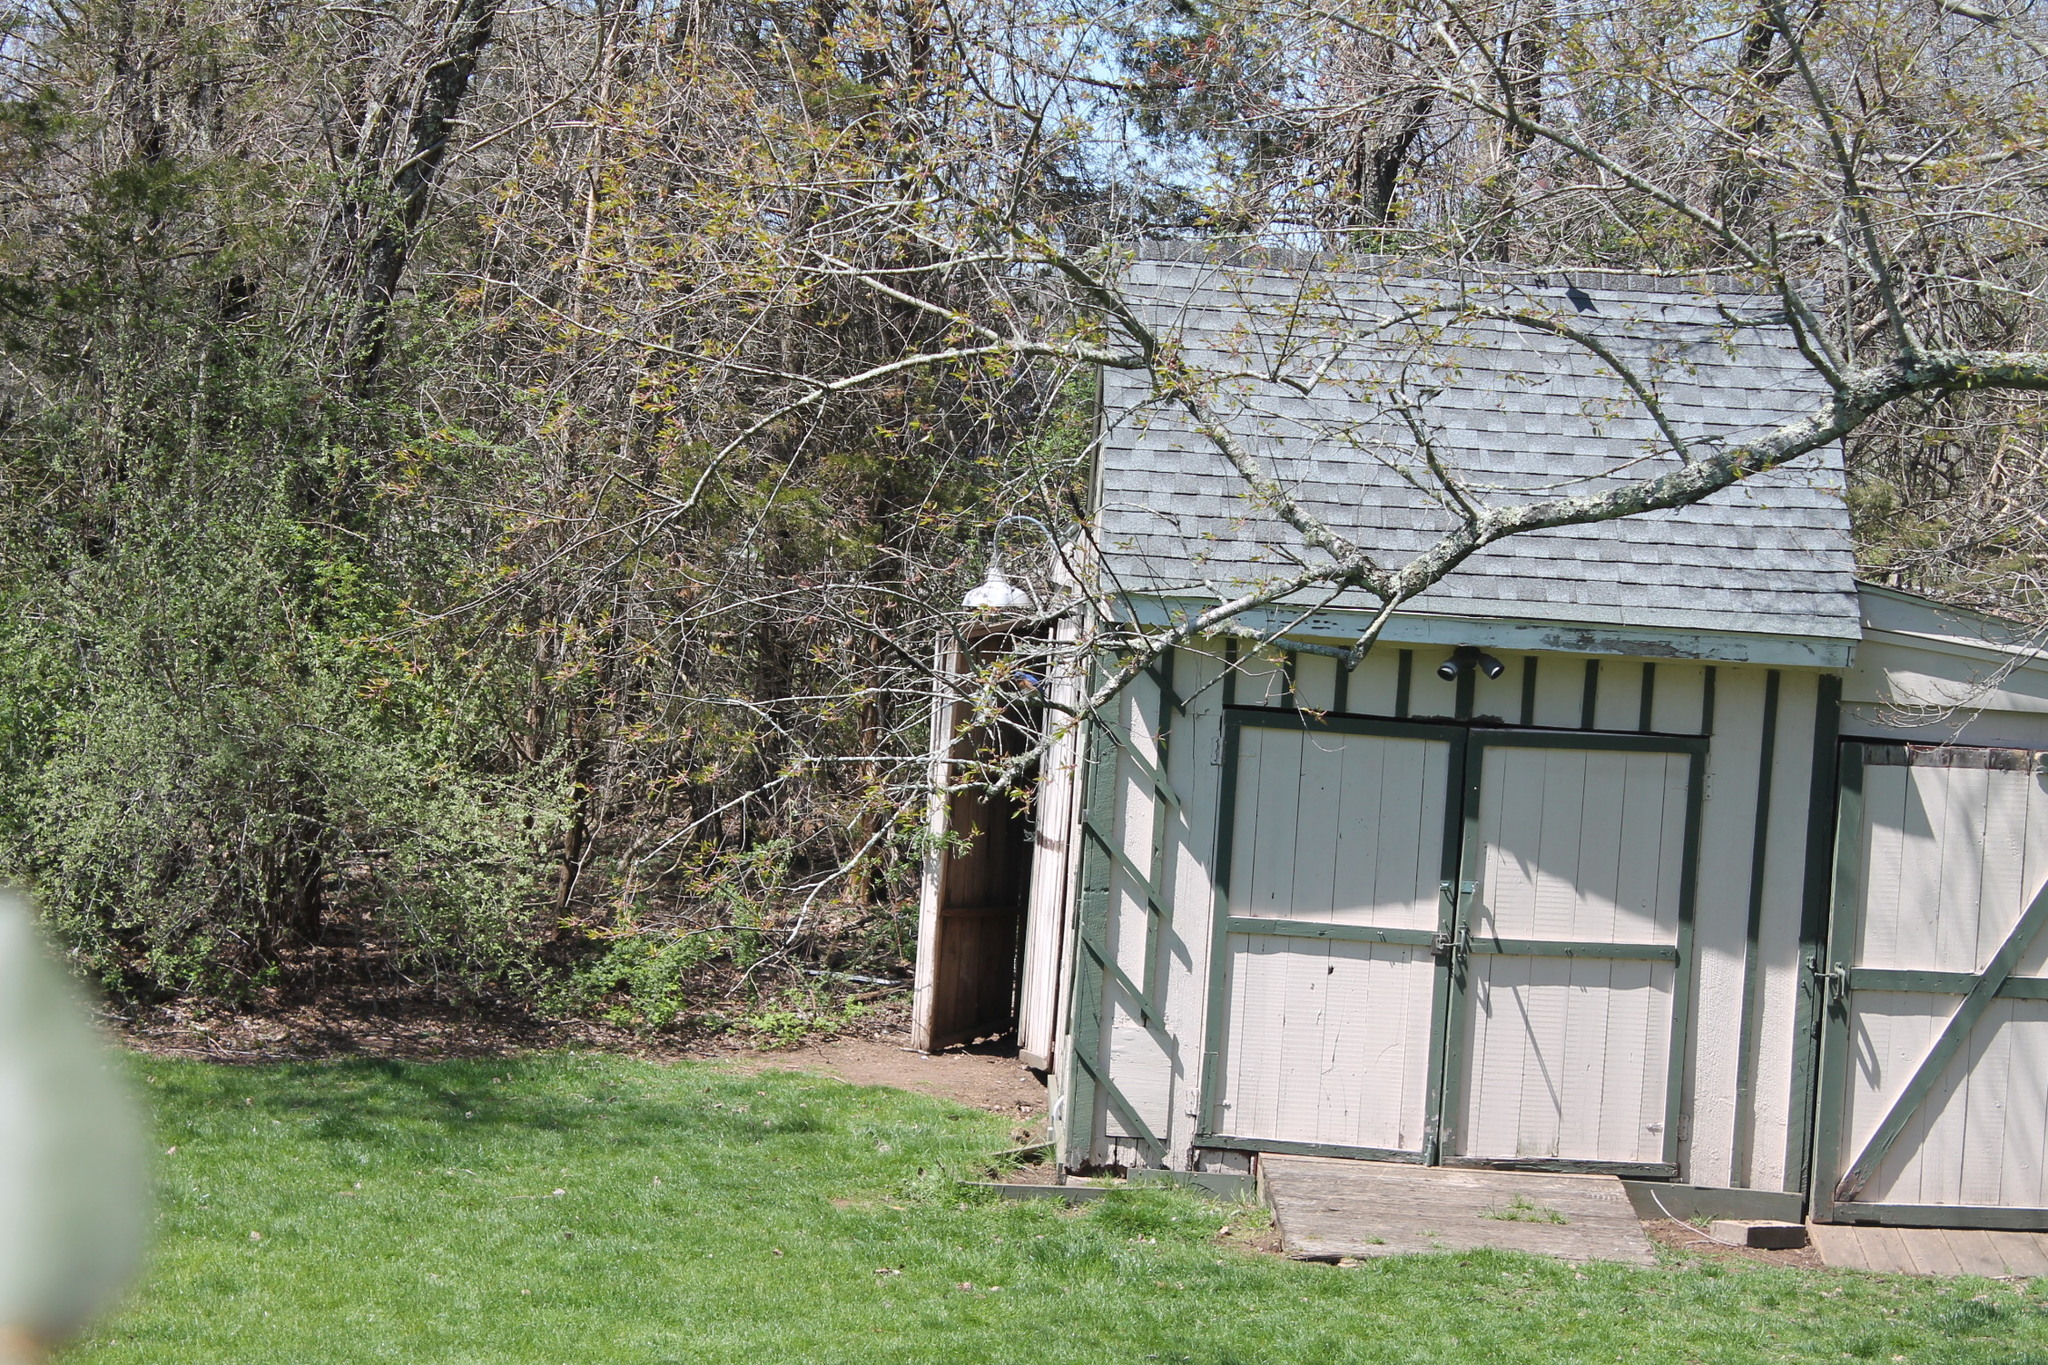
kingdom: Animalia
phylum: Chordata
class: Aves
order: Passeriformes
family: Turdidae
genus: Sialia
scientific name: Sialia sialis
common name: Eastern bluebird
